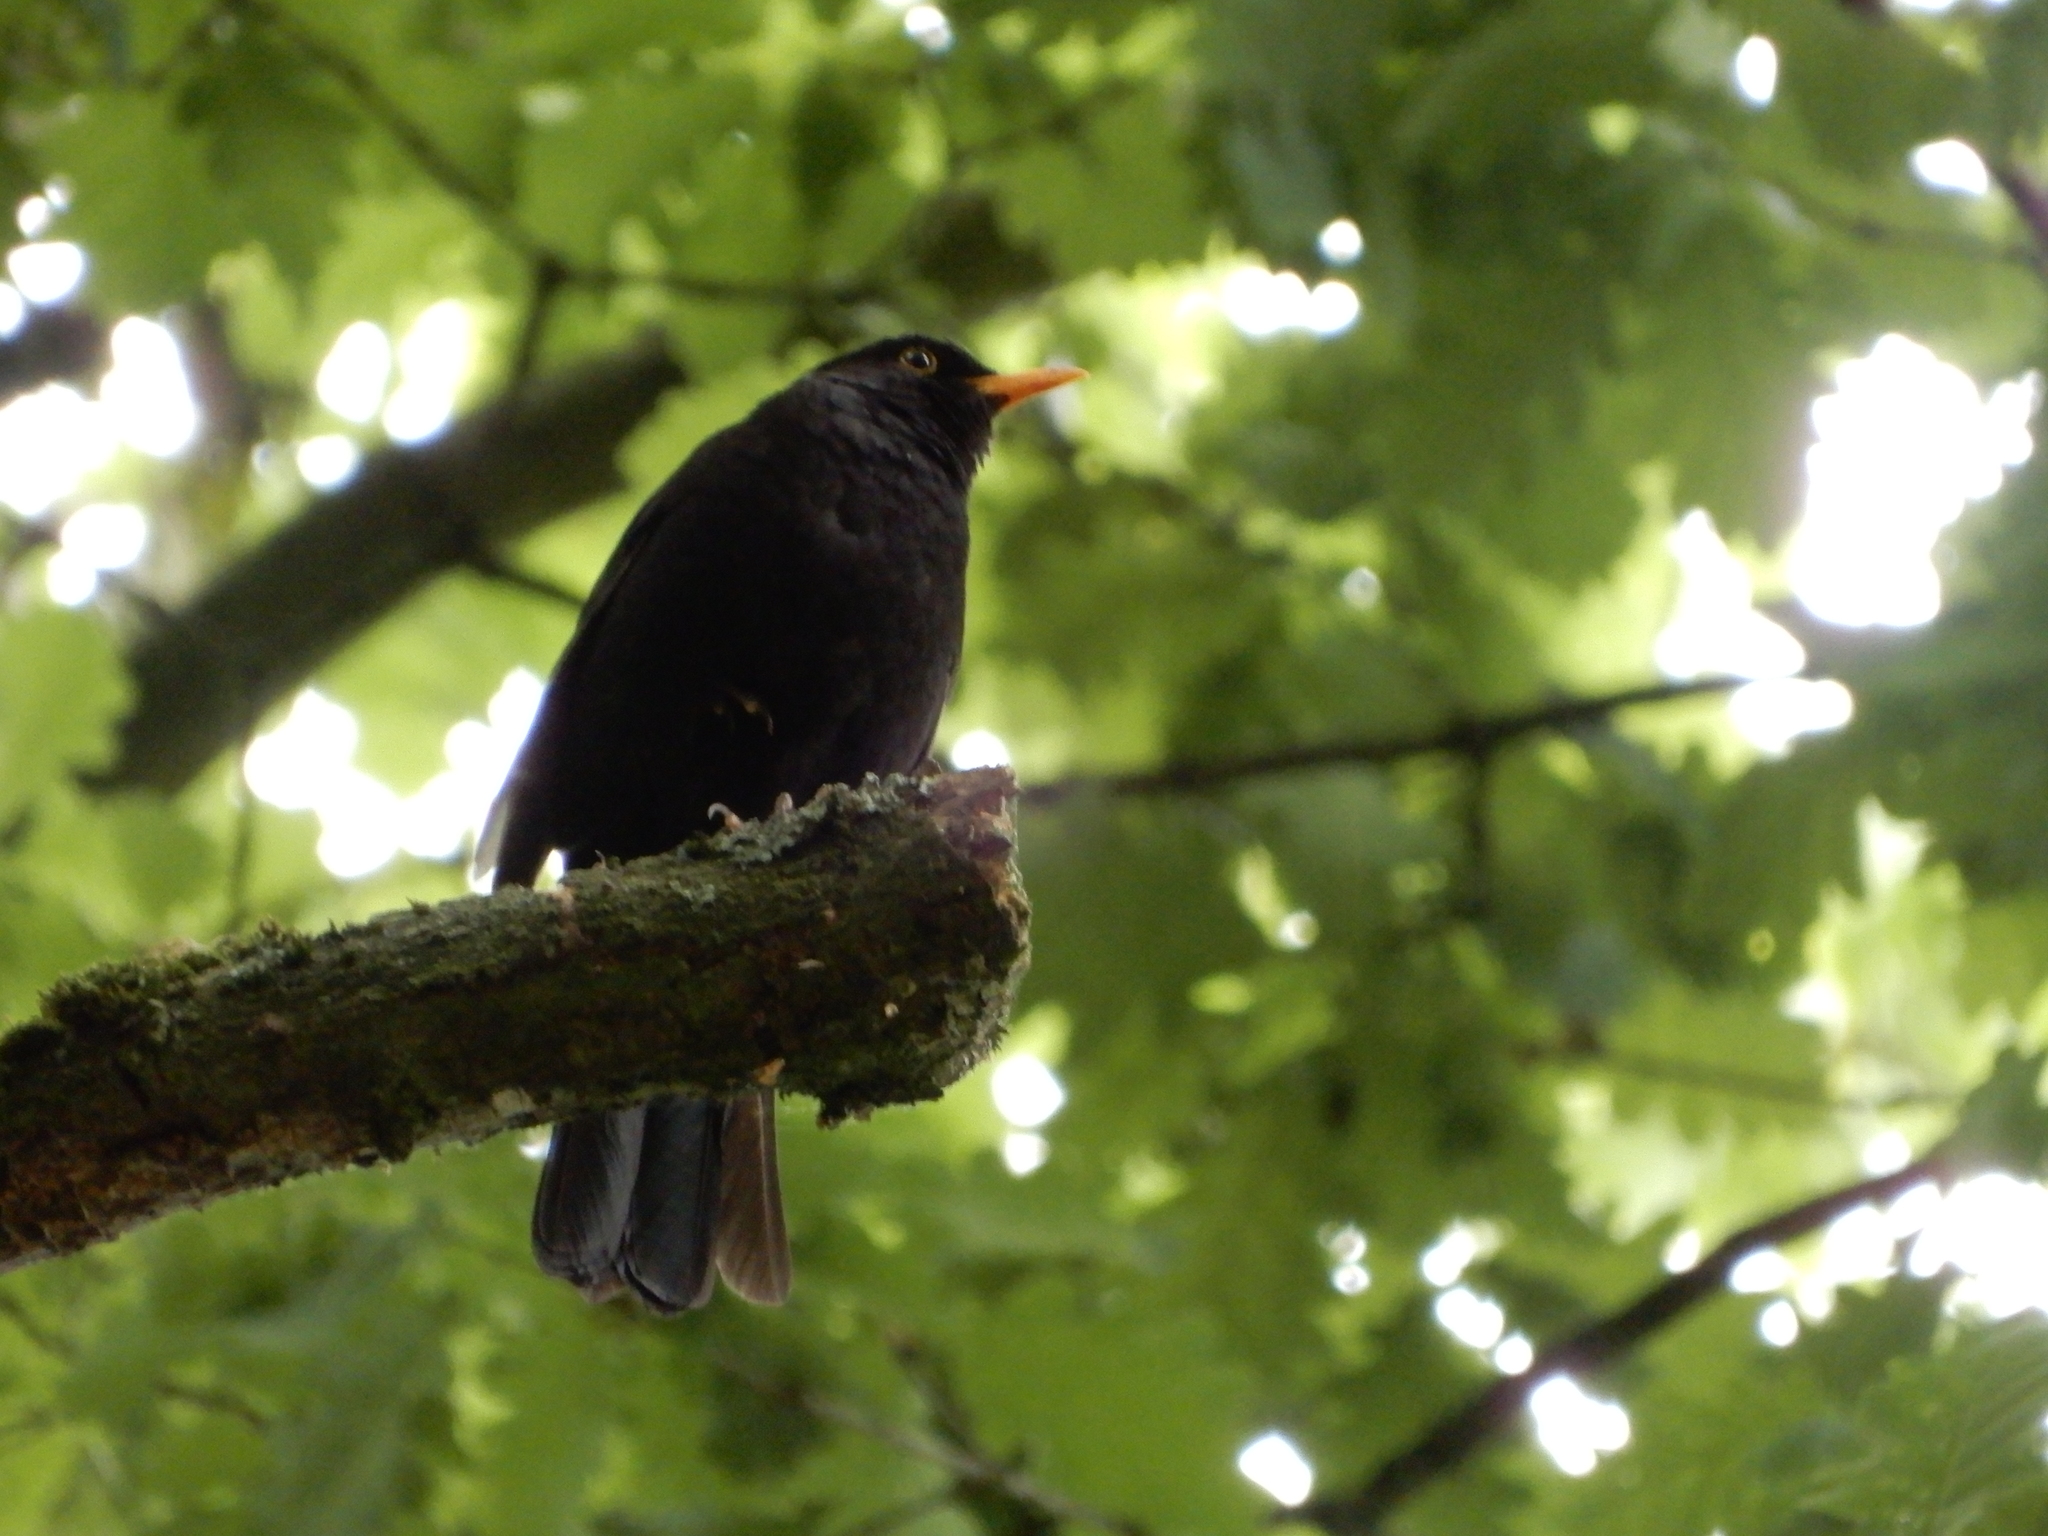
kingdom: Animalia
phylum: Chordata
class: Aves
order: Passeriformes
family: Turdidae
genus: Turdus
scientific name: Turdus merula
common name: Common blackbird
